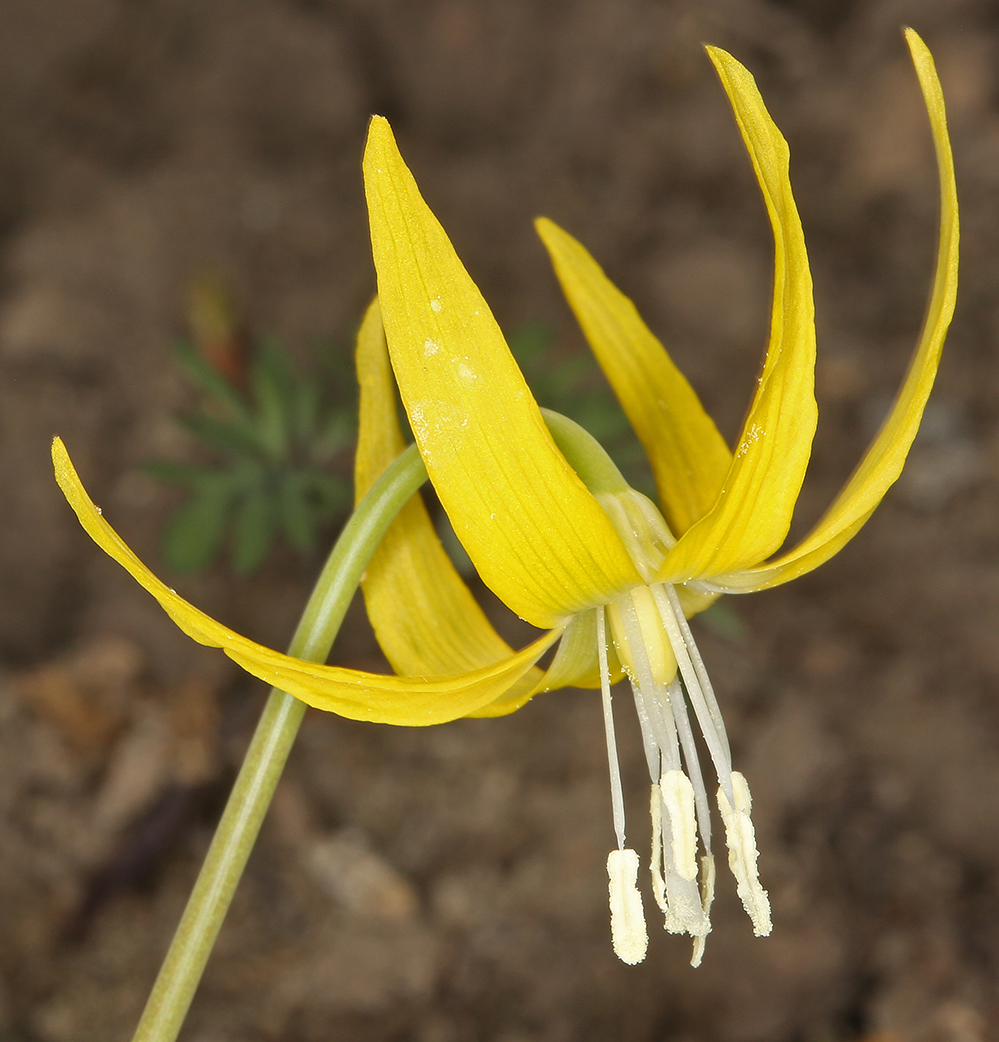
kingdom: Plantae
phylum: Tracheophyta
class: Liliopsida
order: Liliales
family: Liliaceae
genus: Erythronium
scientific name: Erythronium grandiflorum
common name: Avalanche-lily
